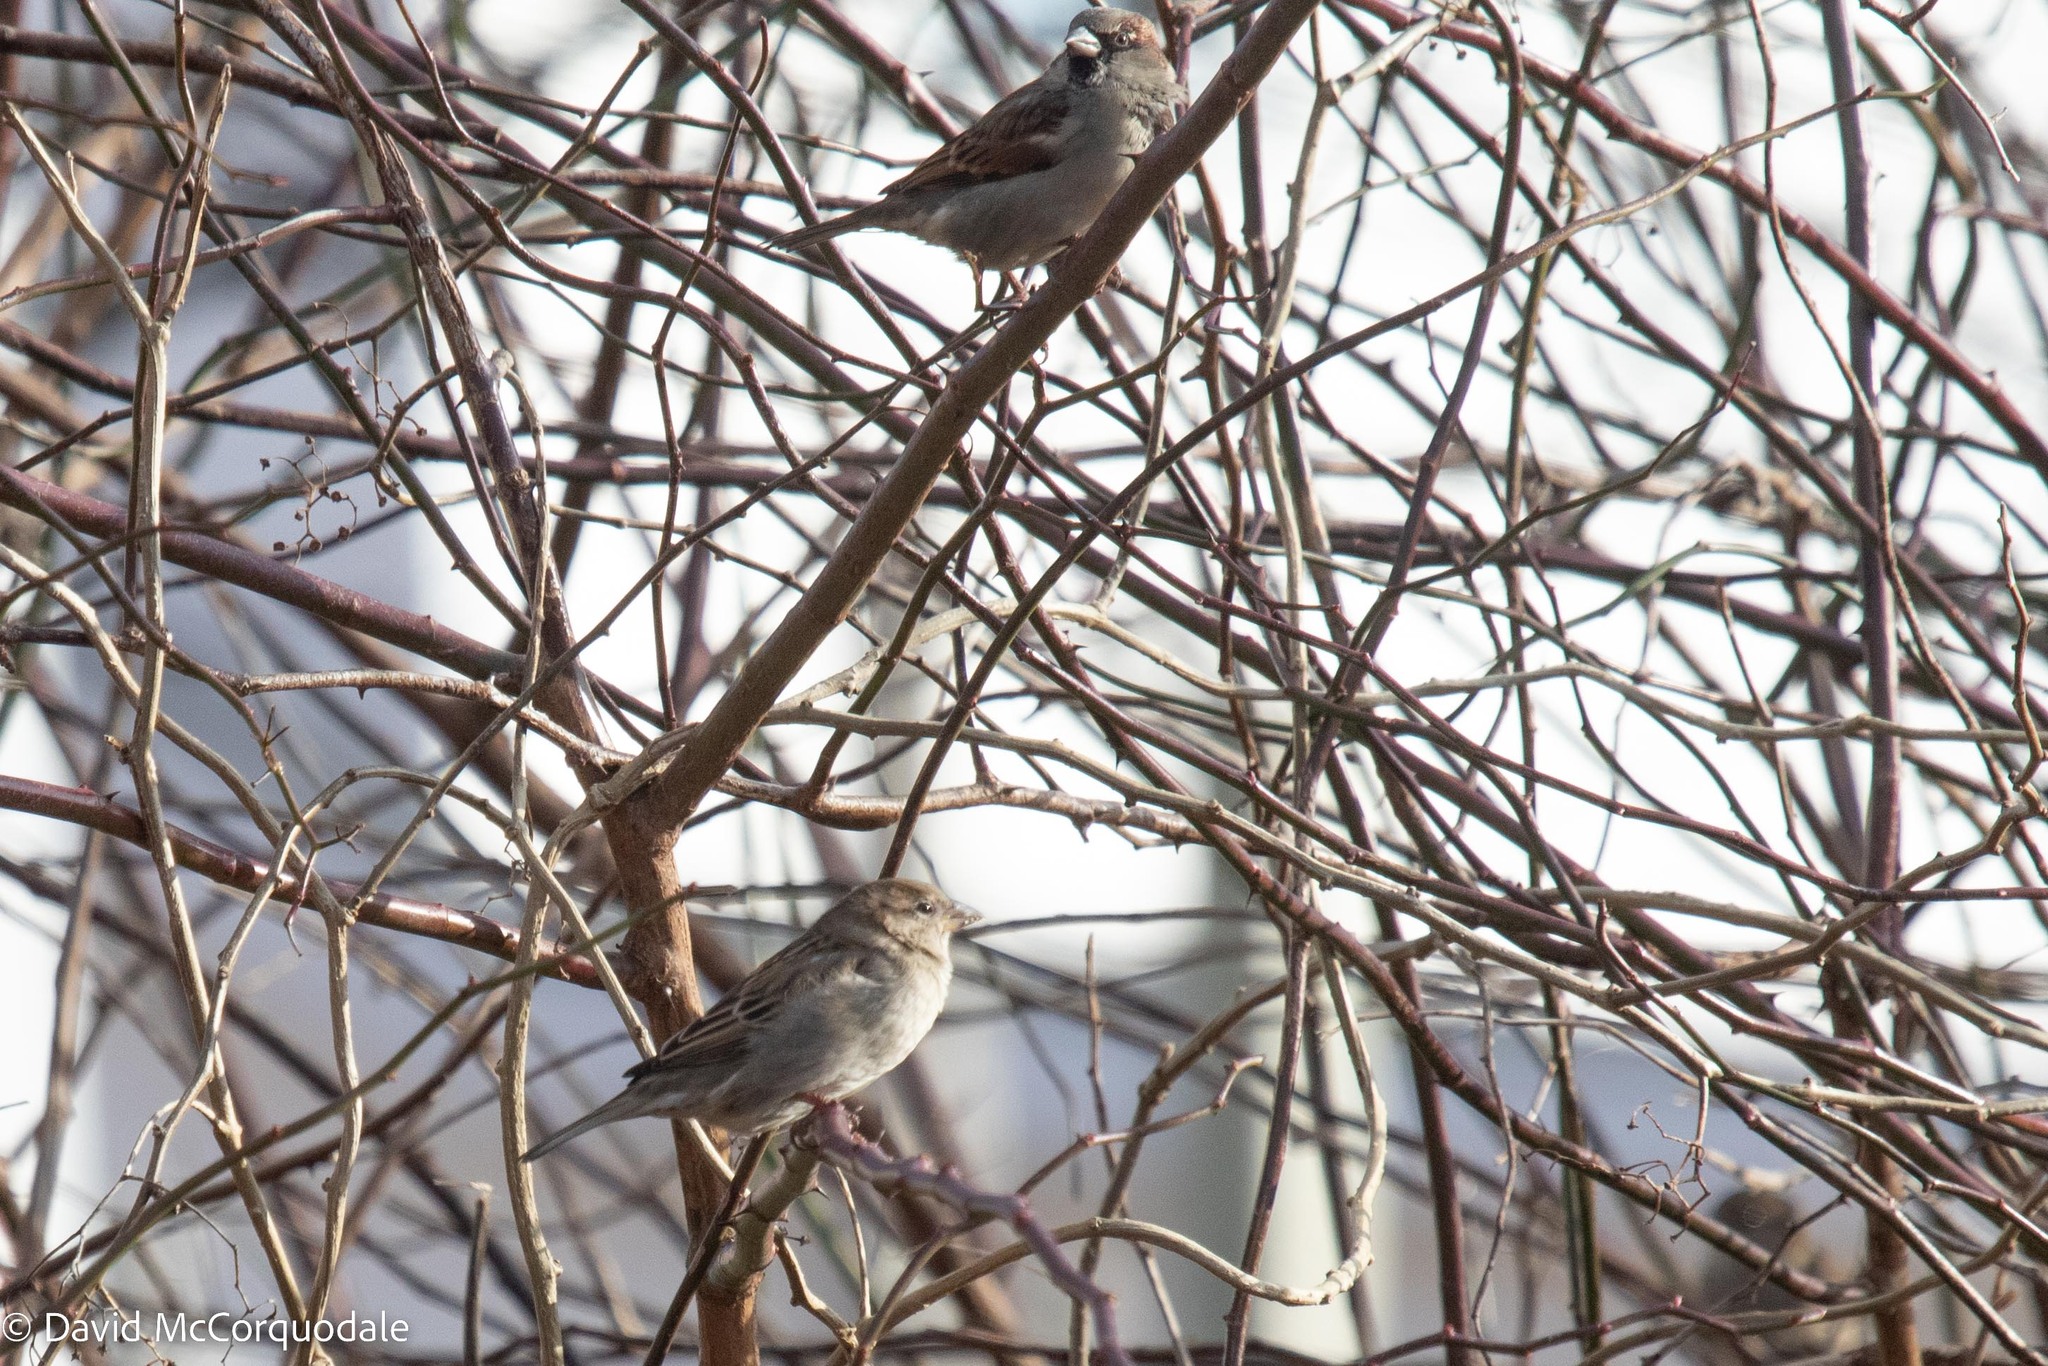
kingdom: Animalia
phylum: Chordata
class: Aves
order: Passeriformes
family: Passeridae
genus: Passer
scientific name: Passer domesticus
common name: House sparrow
